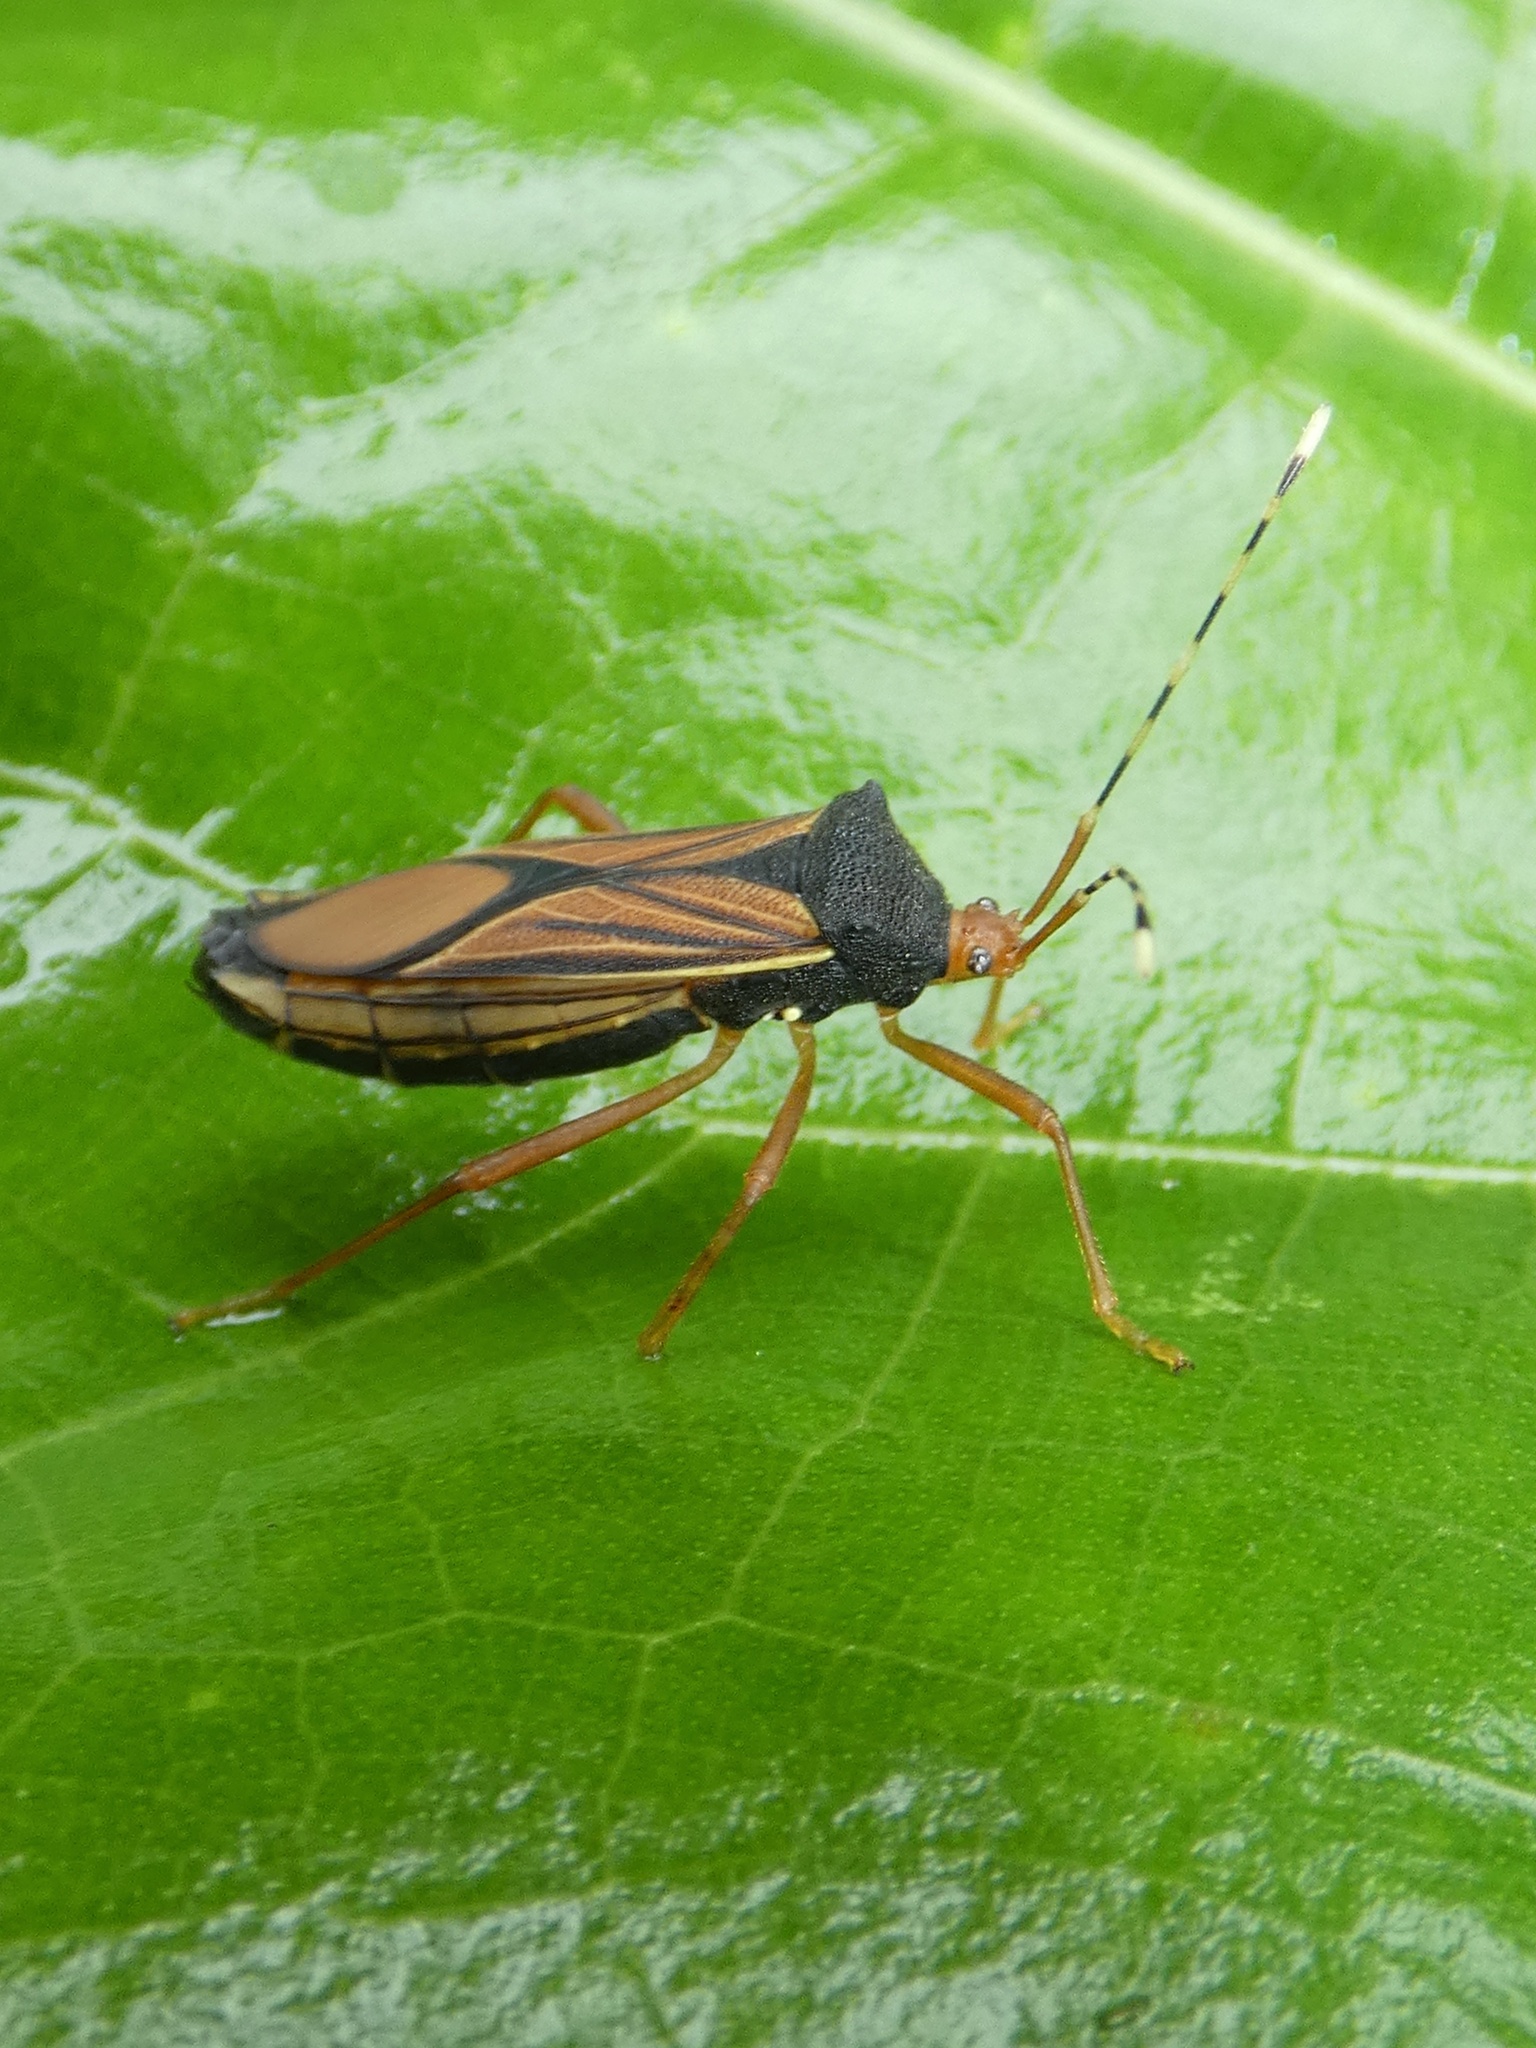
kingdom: Animalia
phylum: Arthropoda
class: Insecta
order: Hemiptera
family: Coreidae
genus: Anasa
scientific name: Anasa nigricollis
